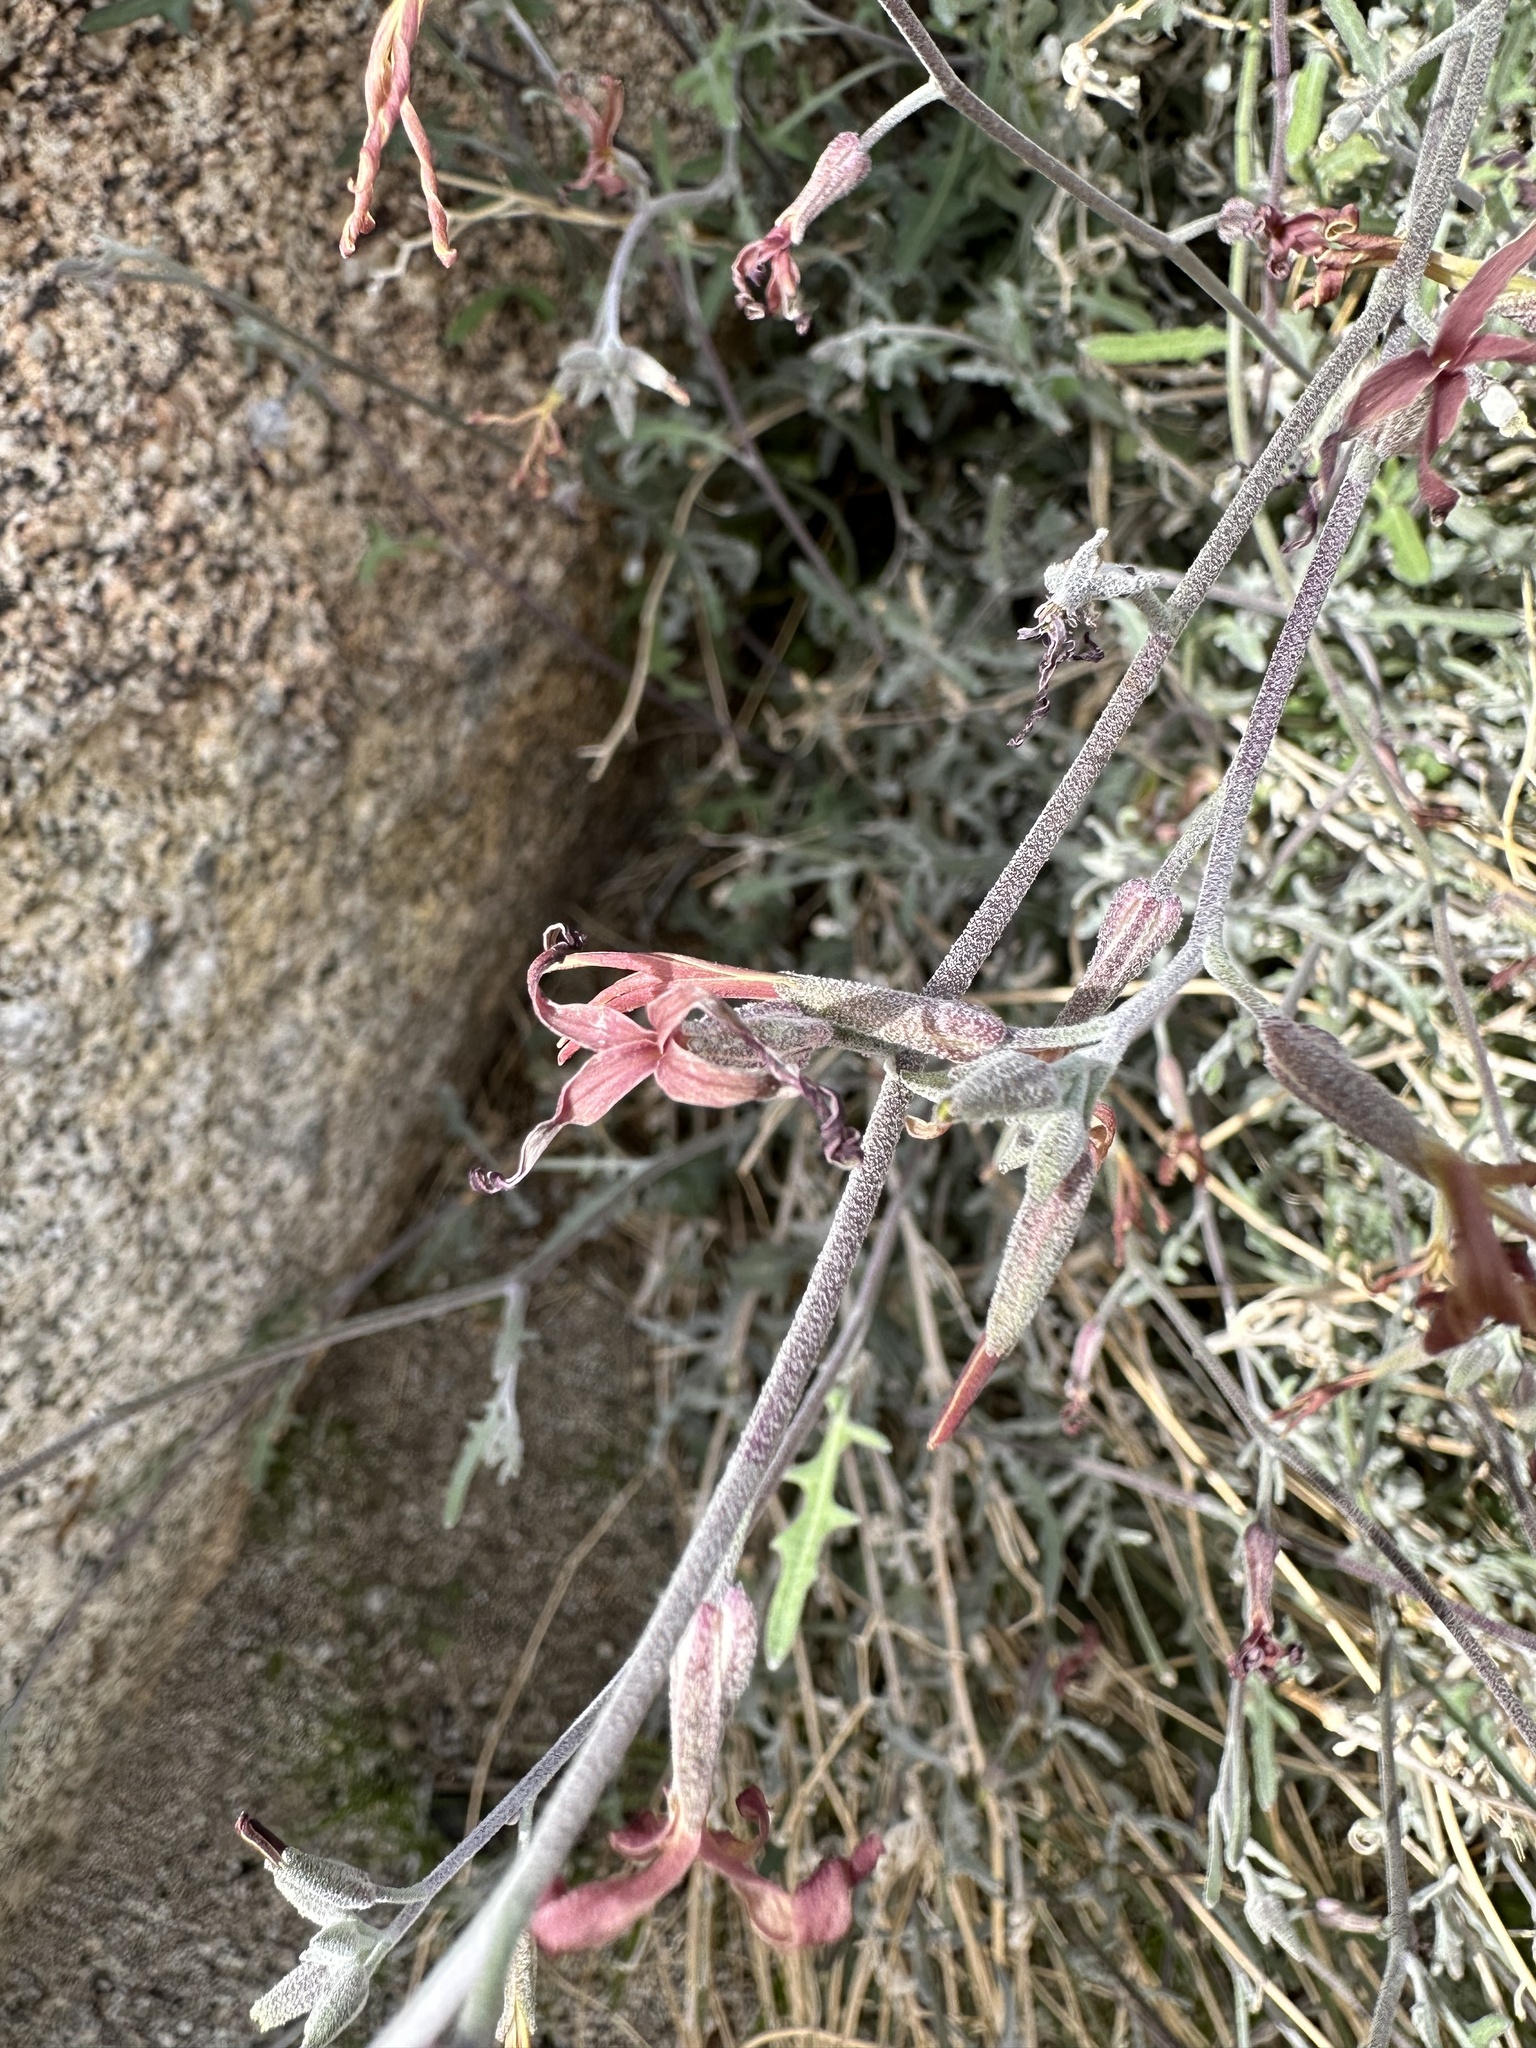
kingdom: Plantae
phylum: Tracheophyta
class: Magnoliopsida
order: Brassicales
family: Brassicaceae
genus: Lyrocarpa
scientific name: Lyrocarpa coulteri
